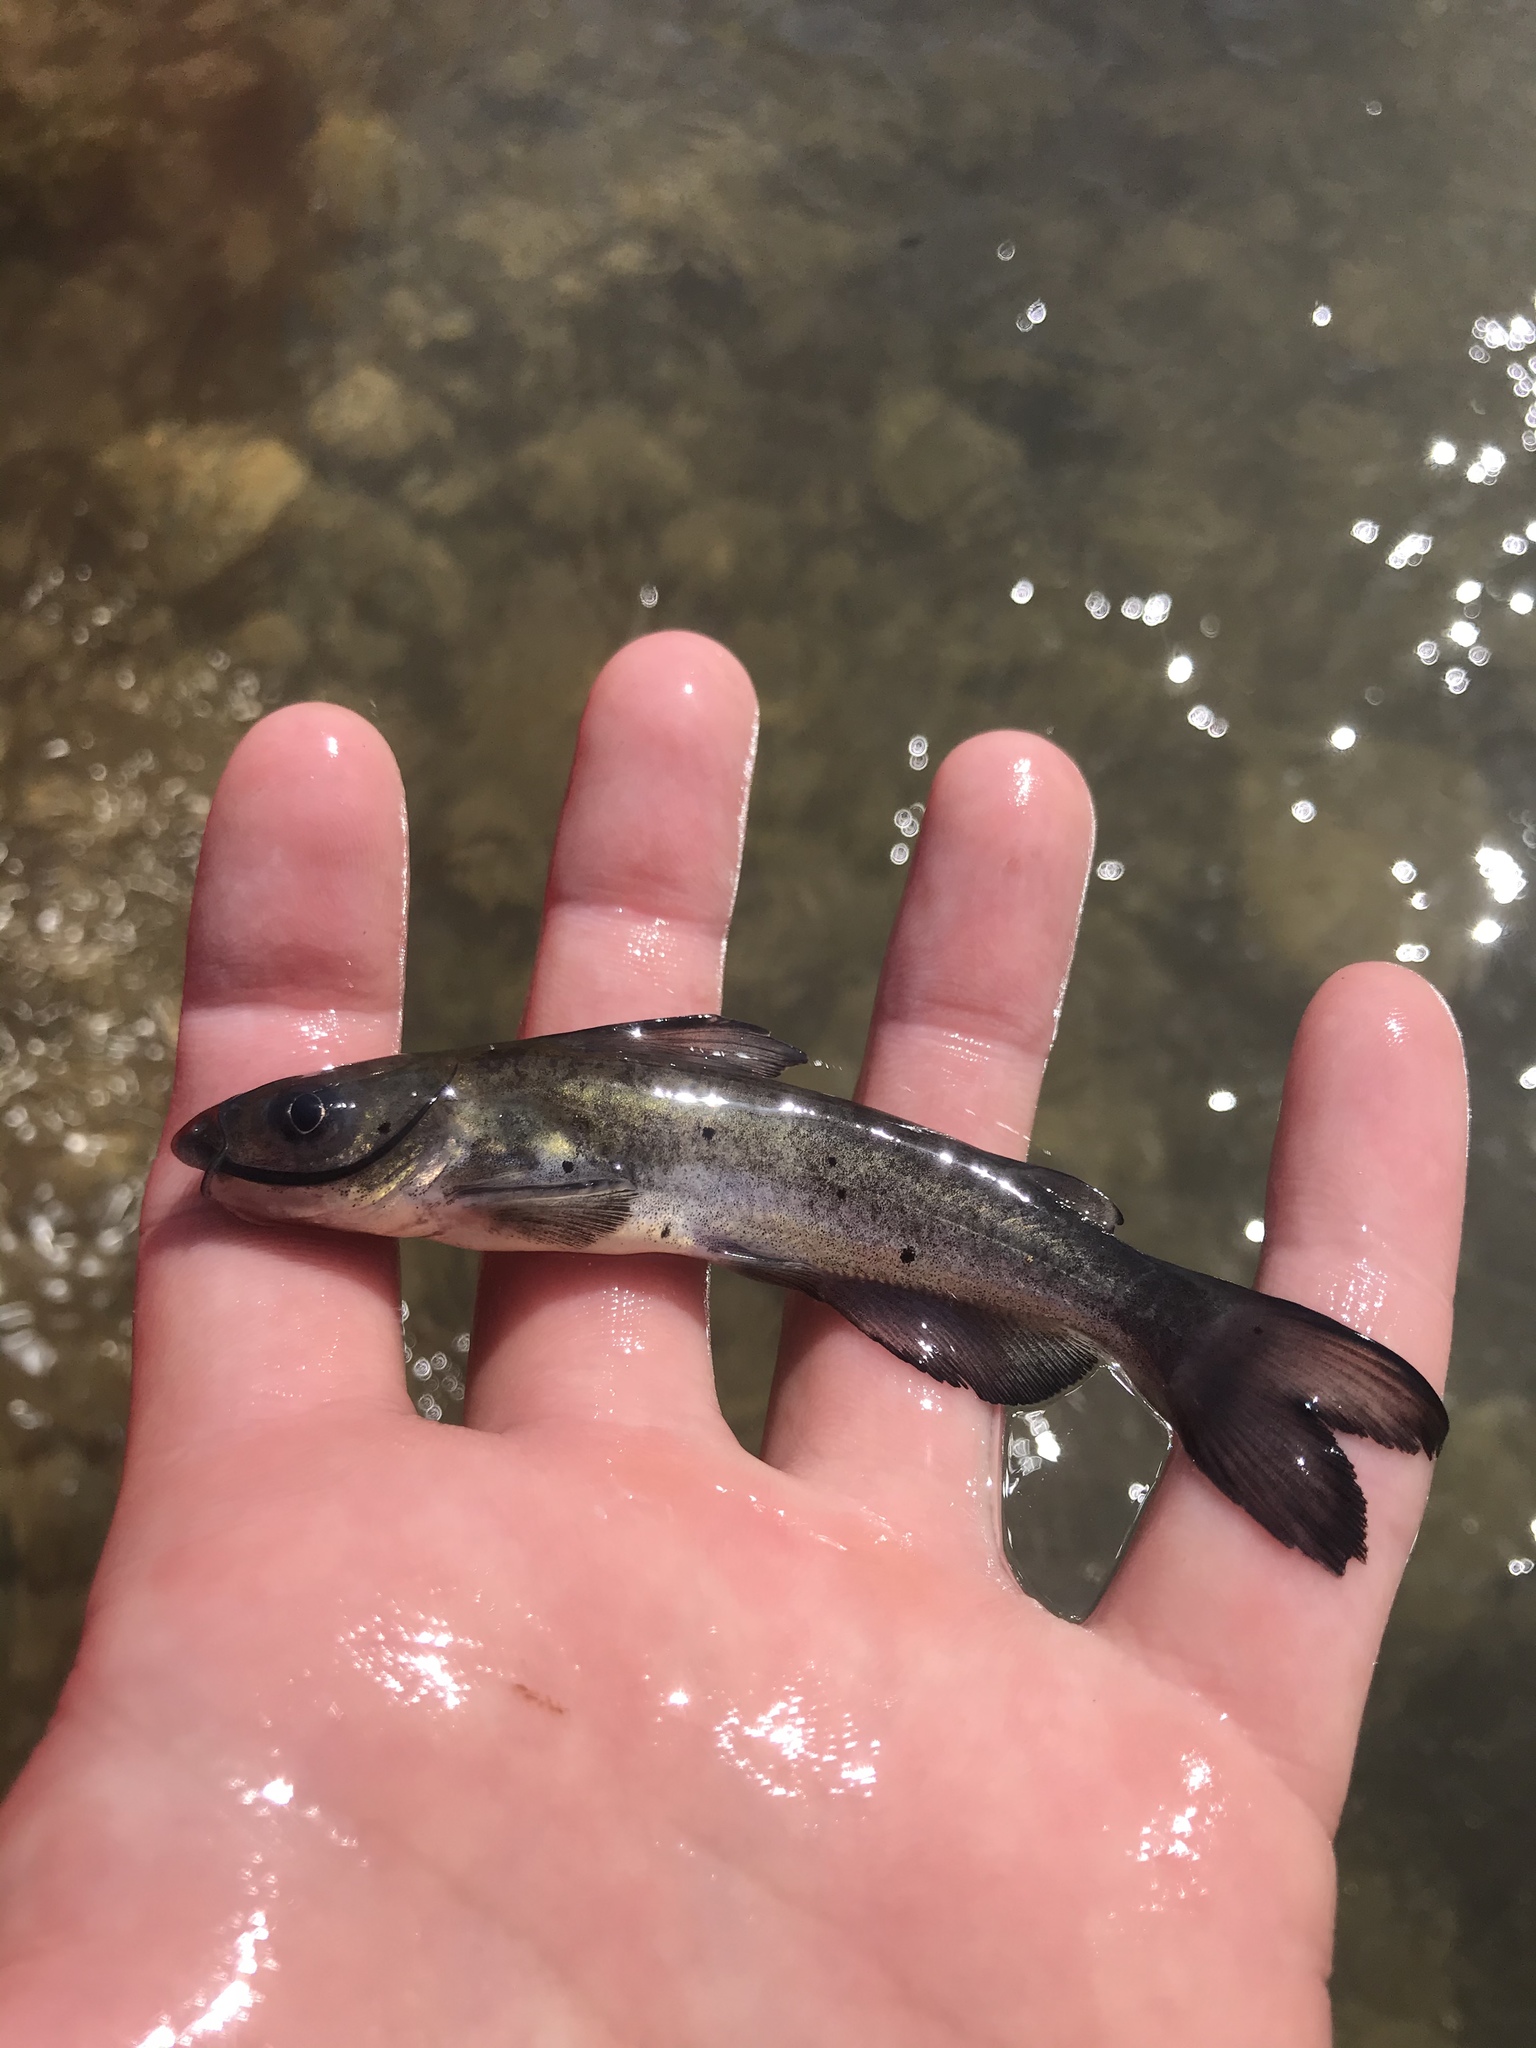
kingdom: Animalia
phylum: Chordata
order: Siluriformes
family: Ictaluridae
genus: Ictalurus
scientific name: Ictalurus punctatus
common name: Channel catfish
